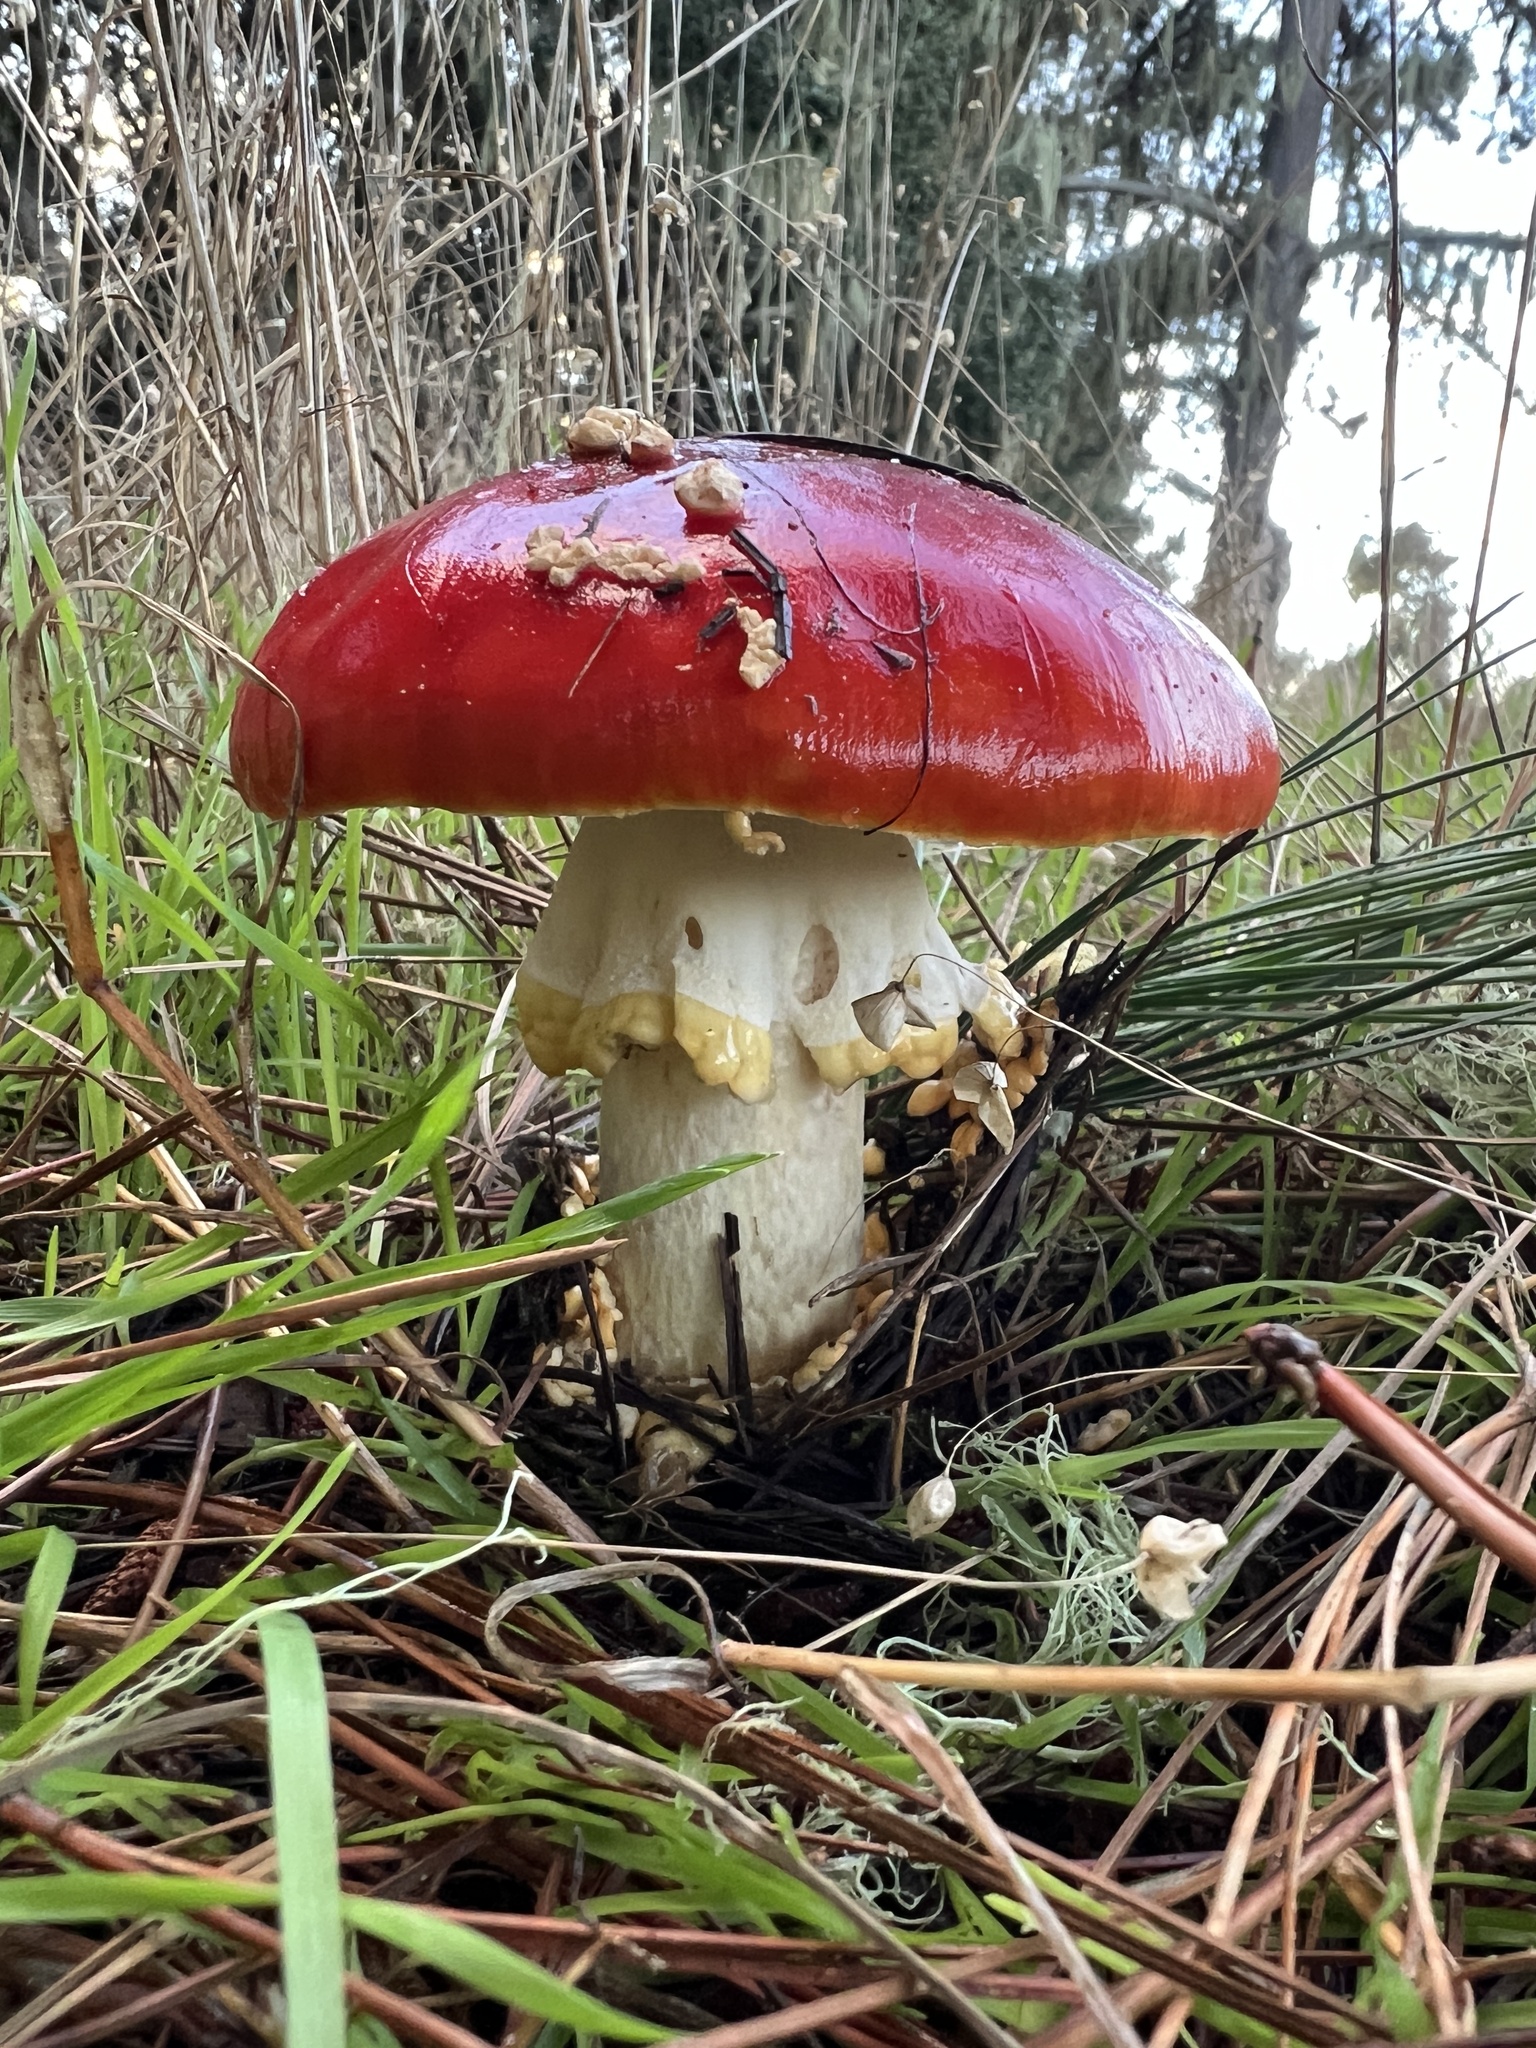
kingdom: Fungi
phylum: Basidiomycota
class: Agaricomycetes
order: Agaricales
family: Amanitaceae
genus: Amanita
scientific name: Amanita muscaria
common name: Fly agaric
